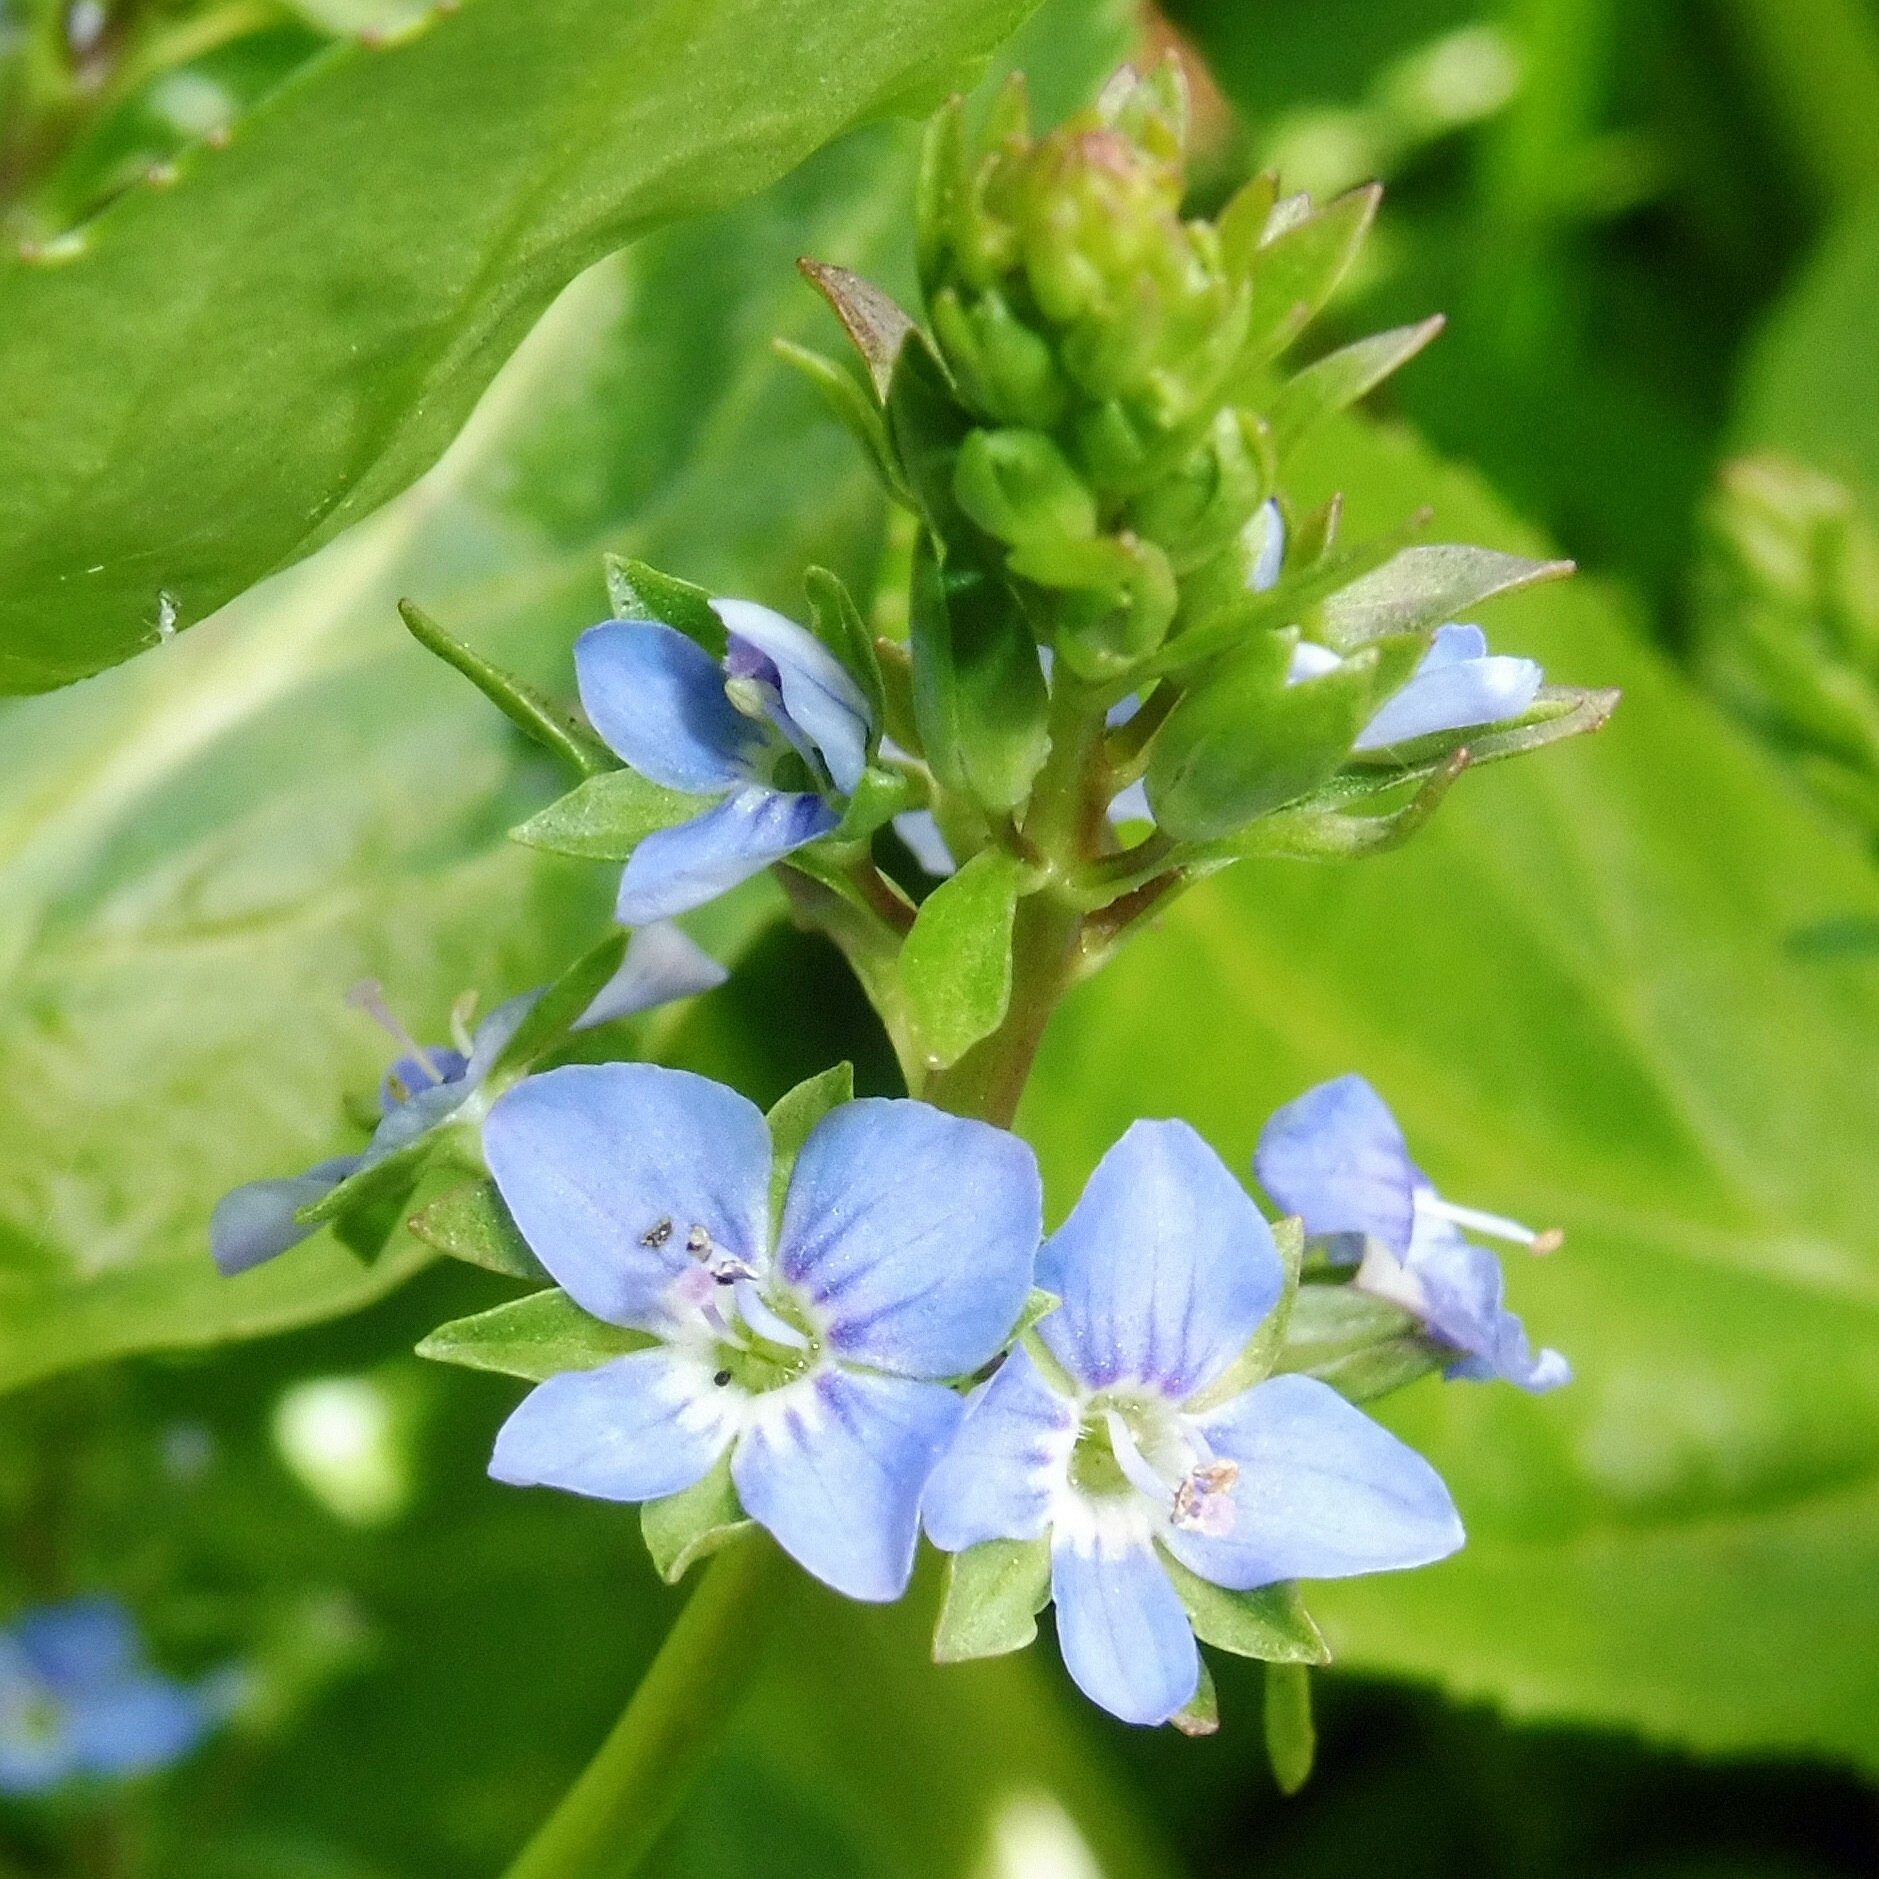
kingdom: Plantae
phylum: Tracheophyta
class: Magnoliopsida
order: Lamiales
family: Plantaginaceae
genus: Veronica
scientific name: Veronica beccabunga
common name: Brooklime
